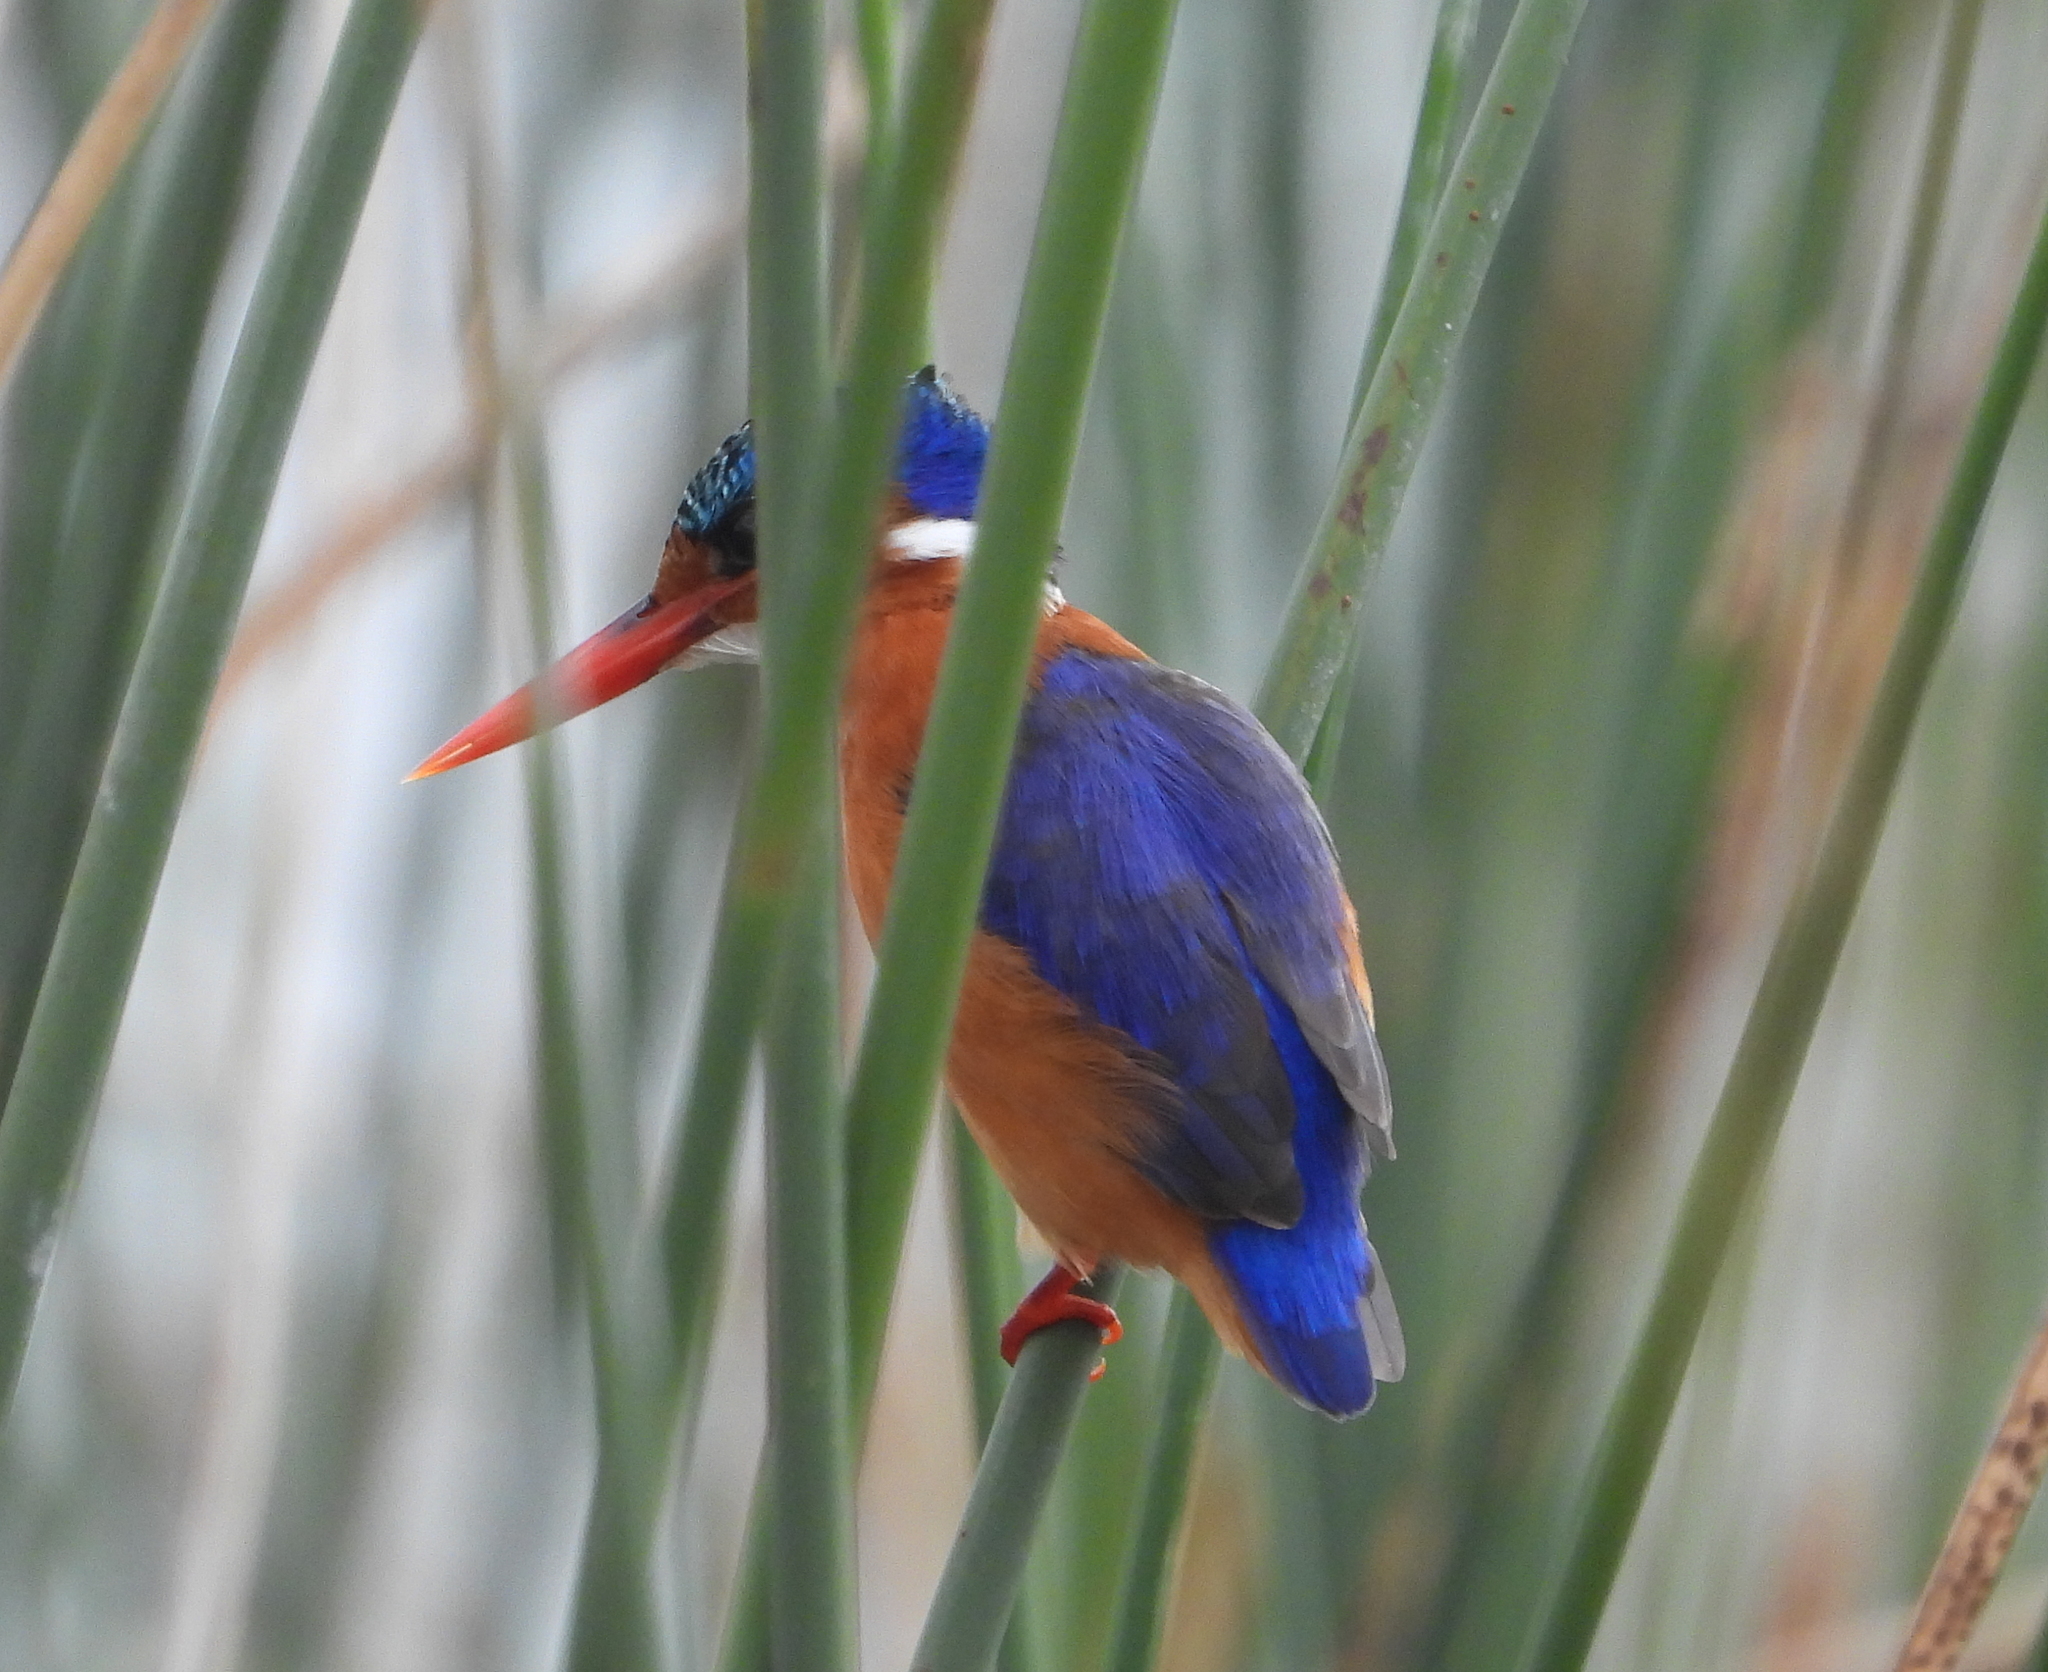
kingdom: Animalia
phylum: Chordata
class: Aves
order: Coraciiformes
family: Alcedinidae
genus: Corythornis
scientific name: Corythornis cristatus
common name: Malachite kingfisher
